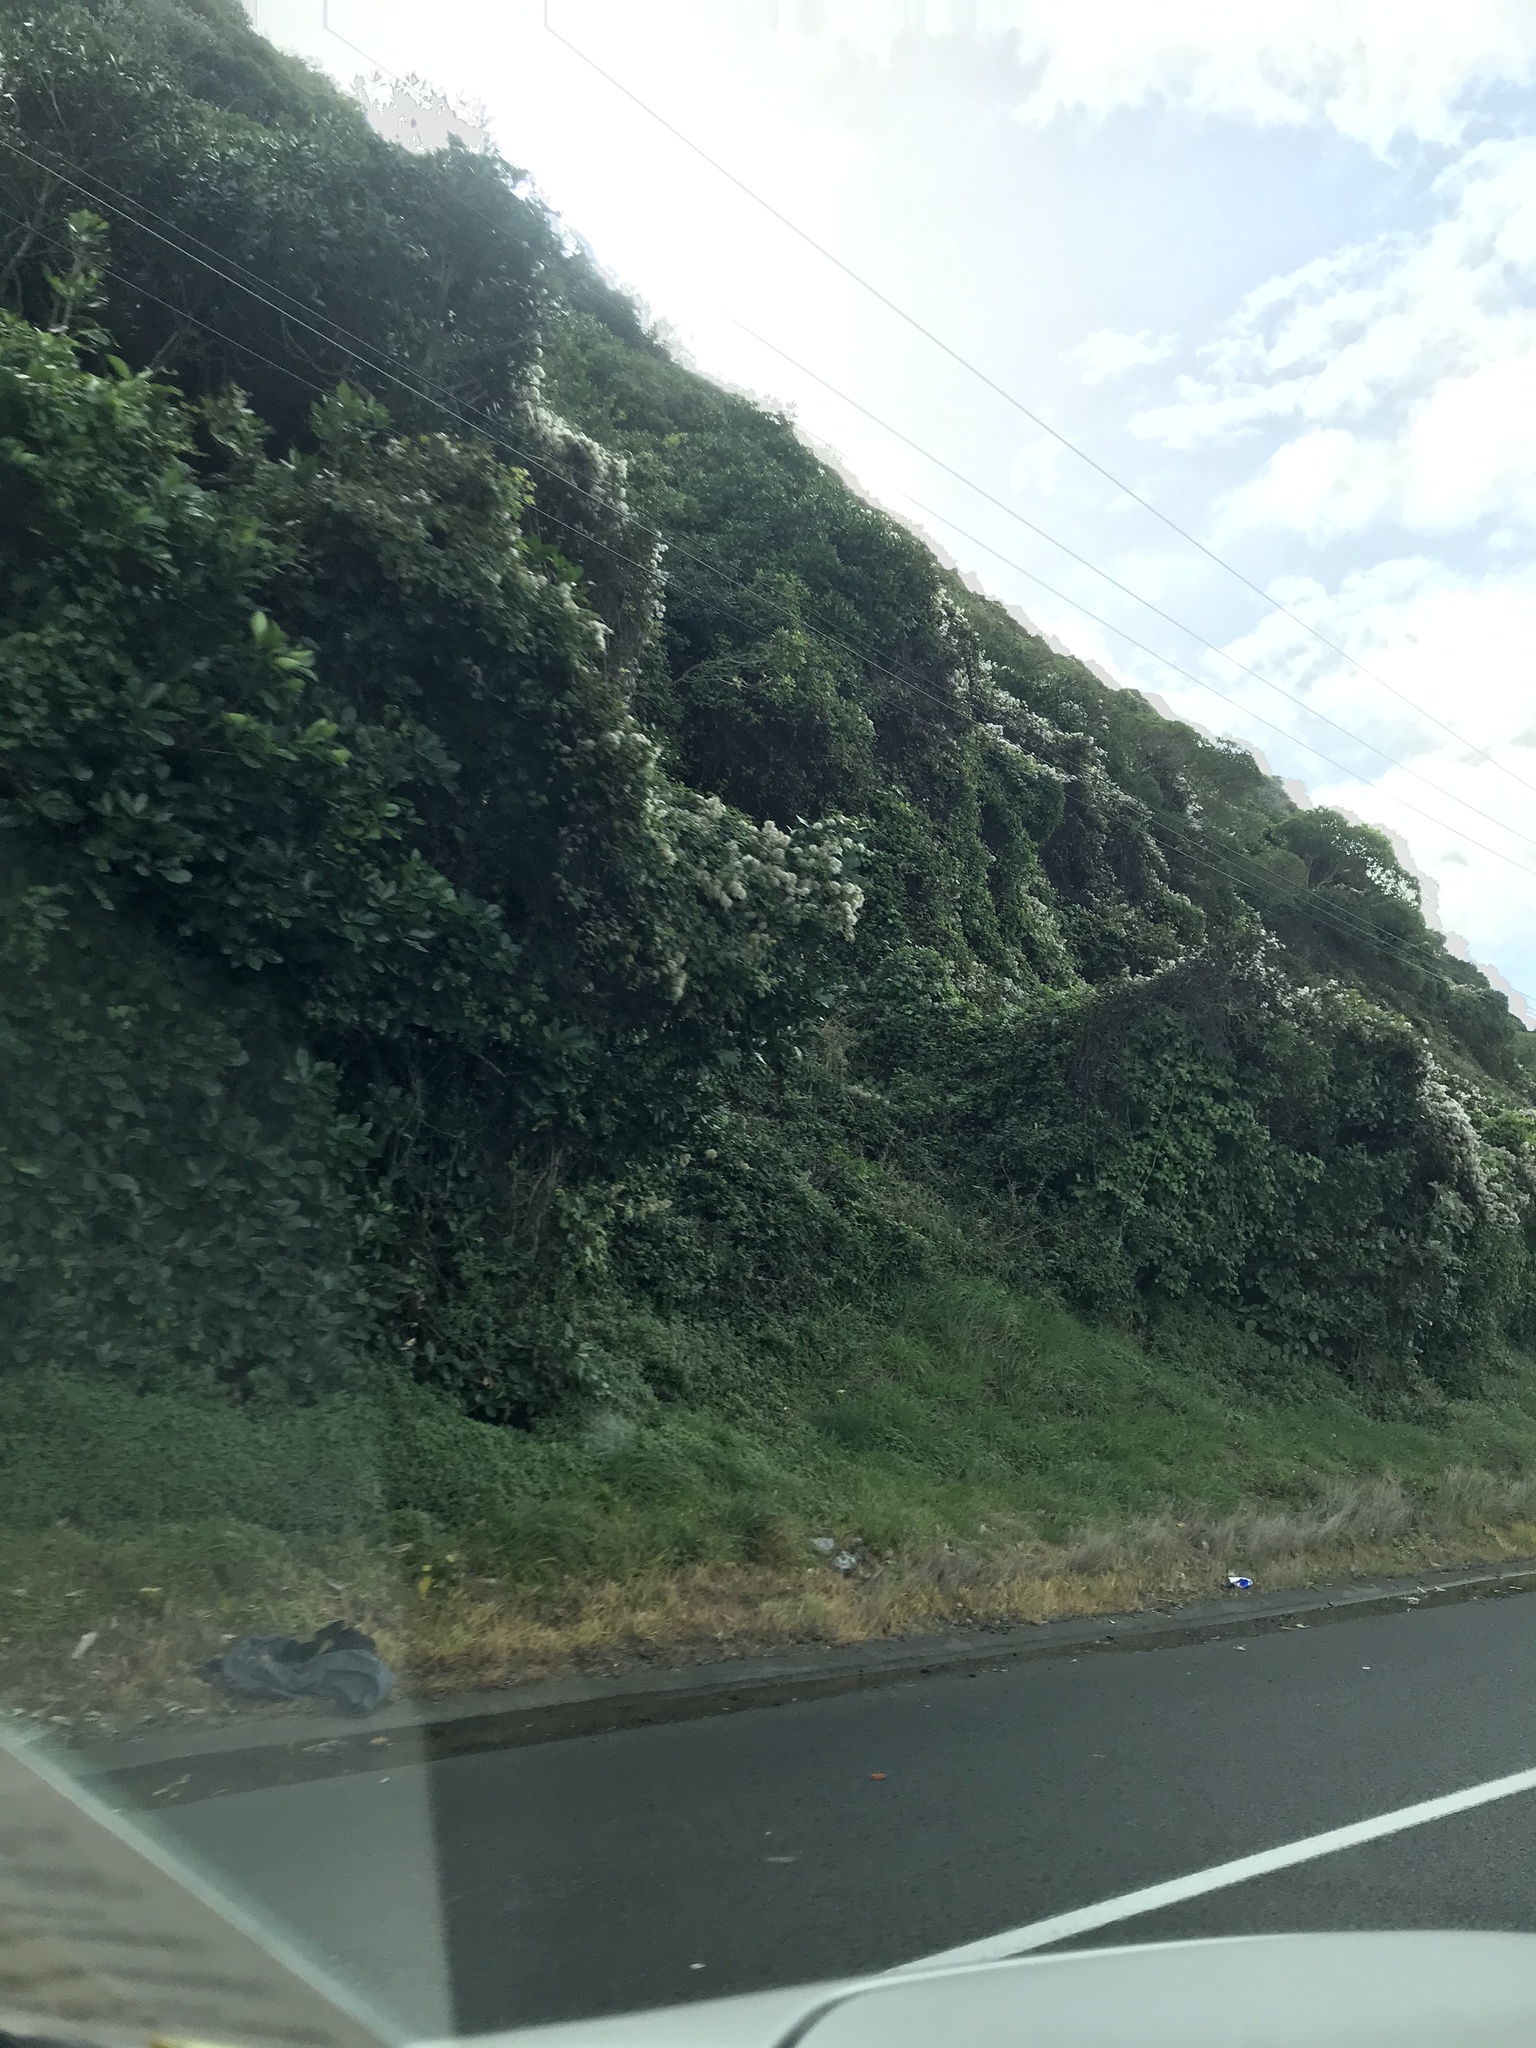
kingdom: Plantae
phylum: Tracheophyta
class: Magnoliopsida
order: Ranunculales
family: Ranunculaceae
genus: Clematis
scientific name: Clematis vitalba
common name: Evergreen clematis
